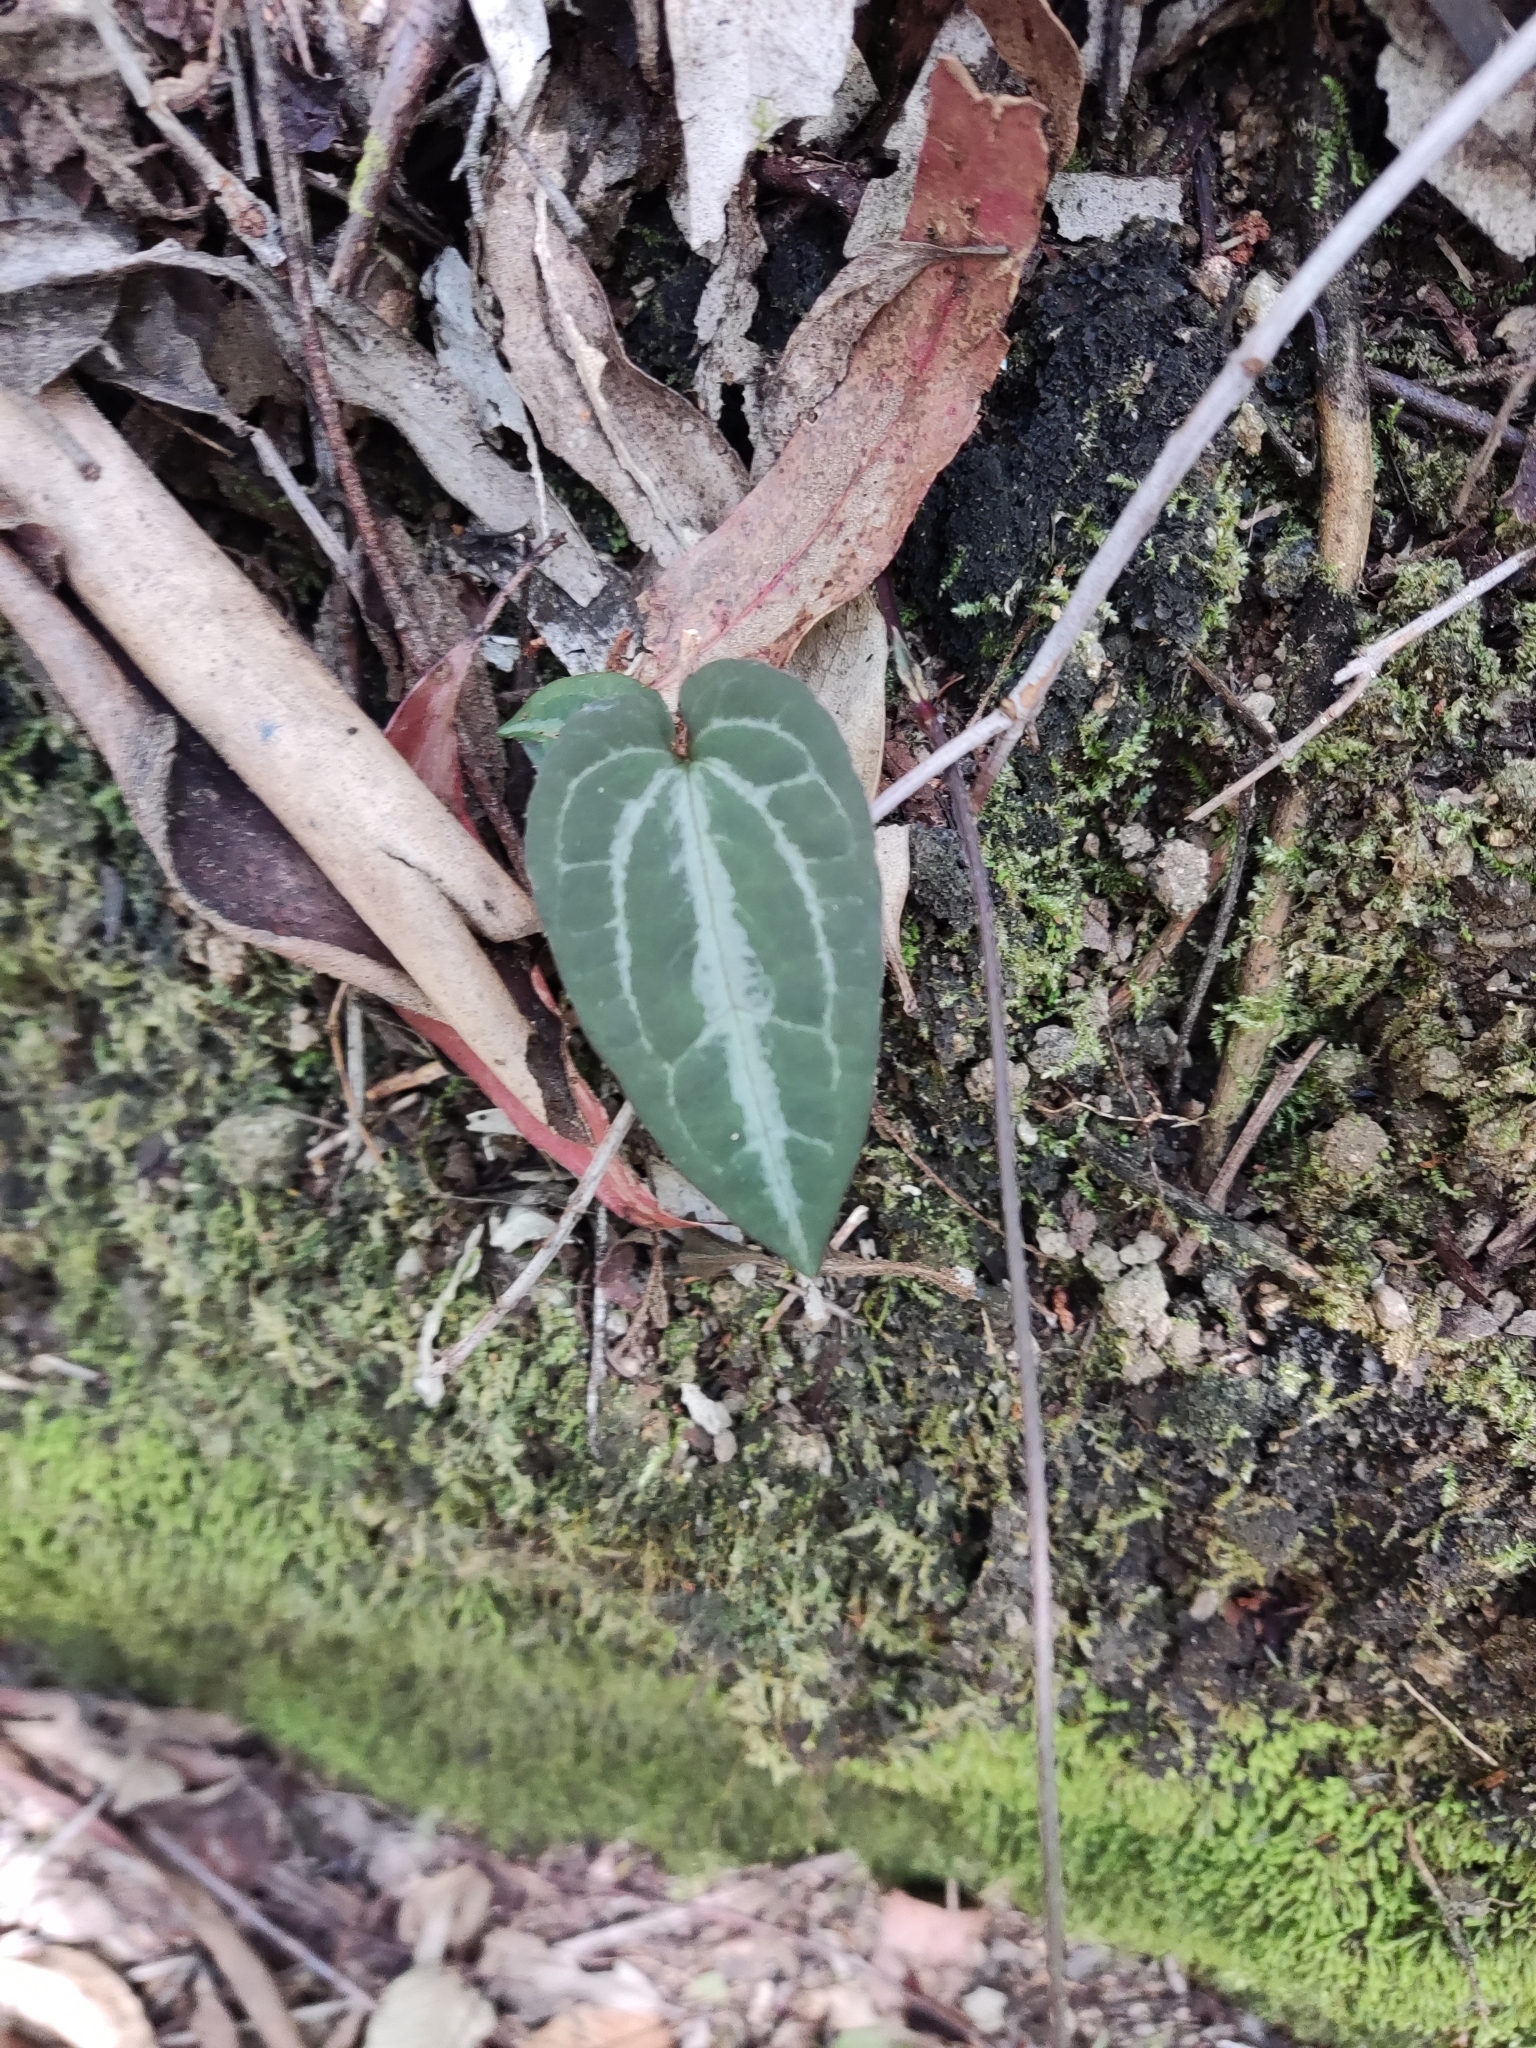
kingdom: Plantae
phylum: Tracheophyta
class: Magnoliopsida
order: Ranunculales
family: Ranunculaceae
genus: Clematis
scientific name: Clematis aristata
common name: Mountain clematis
